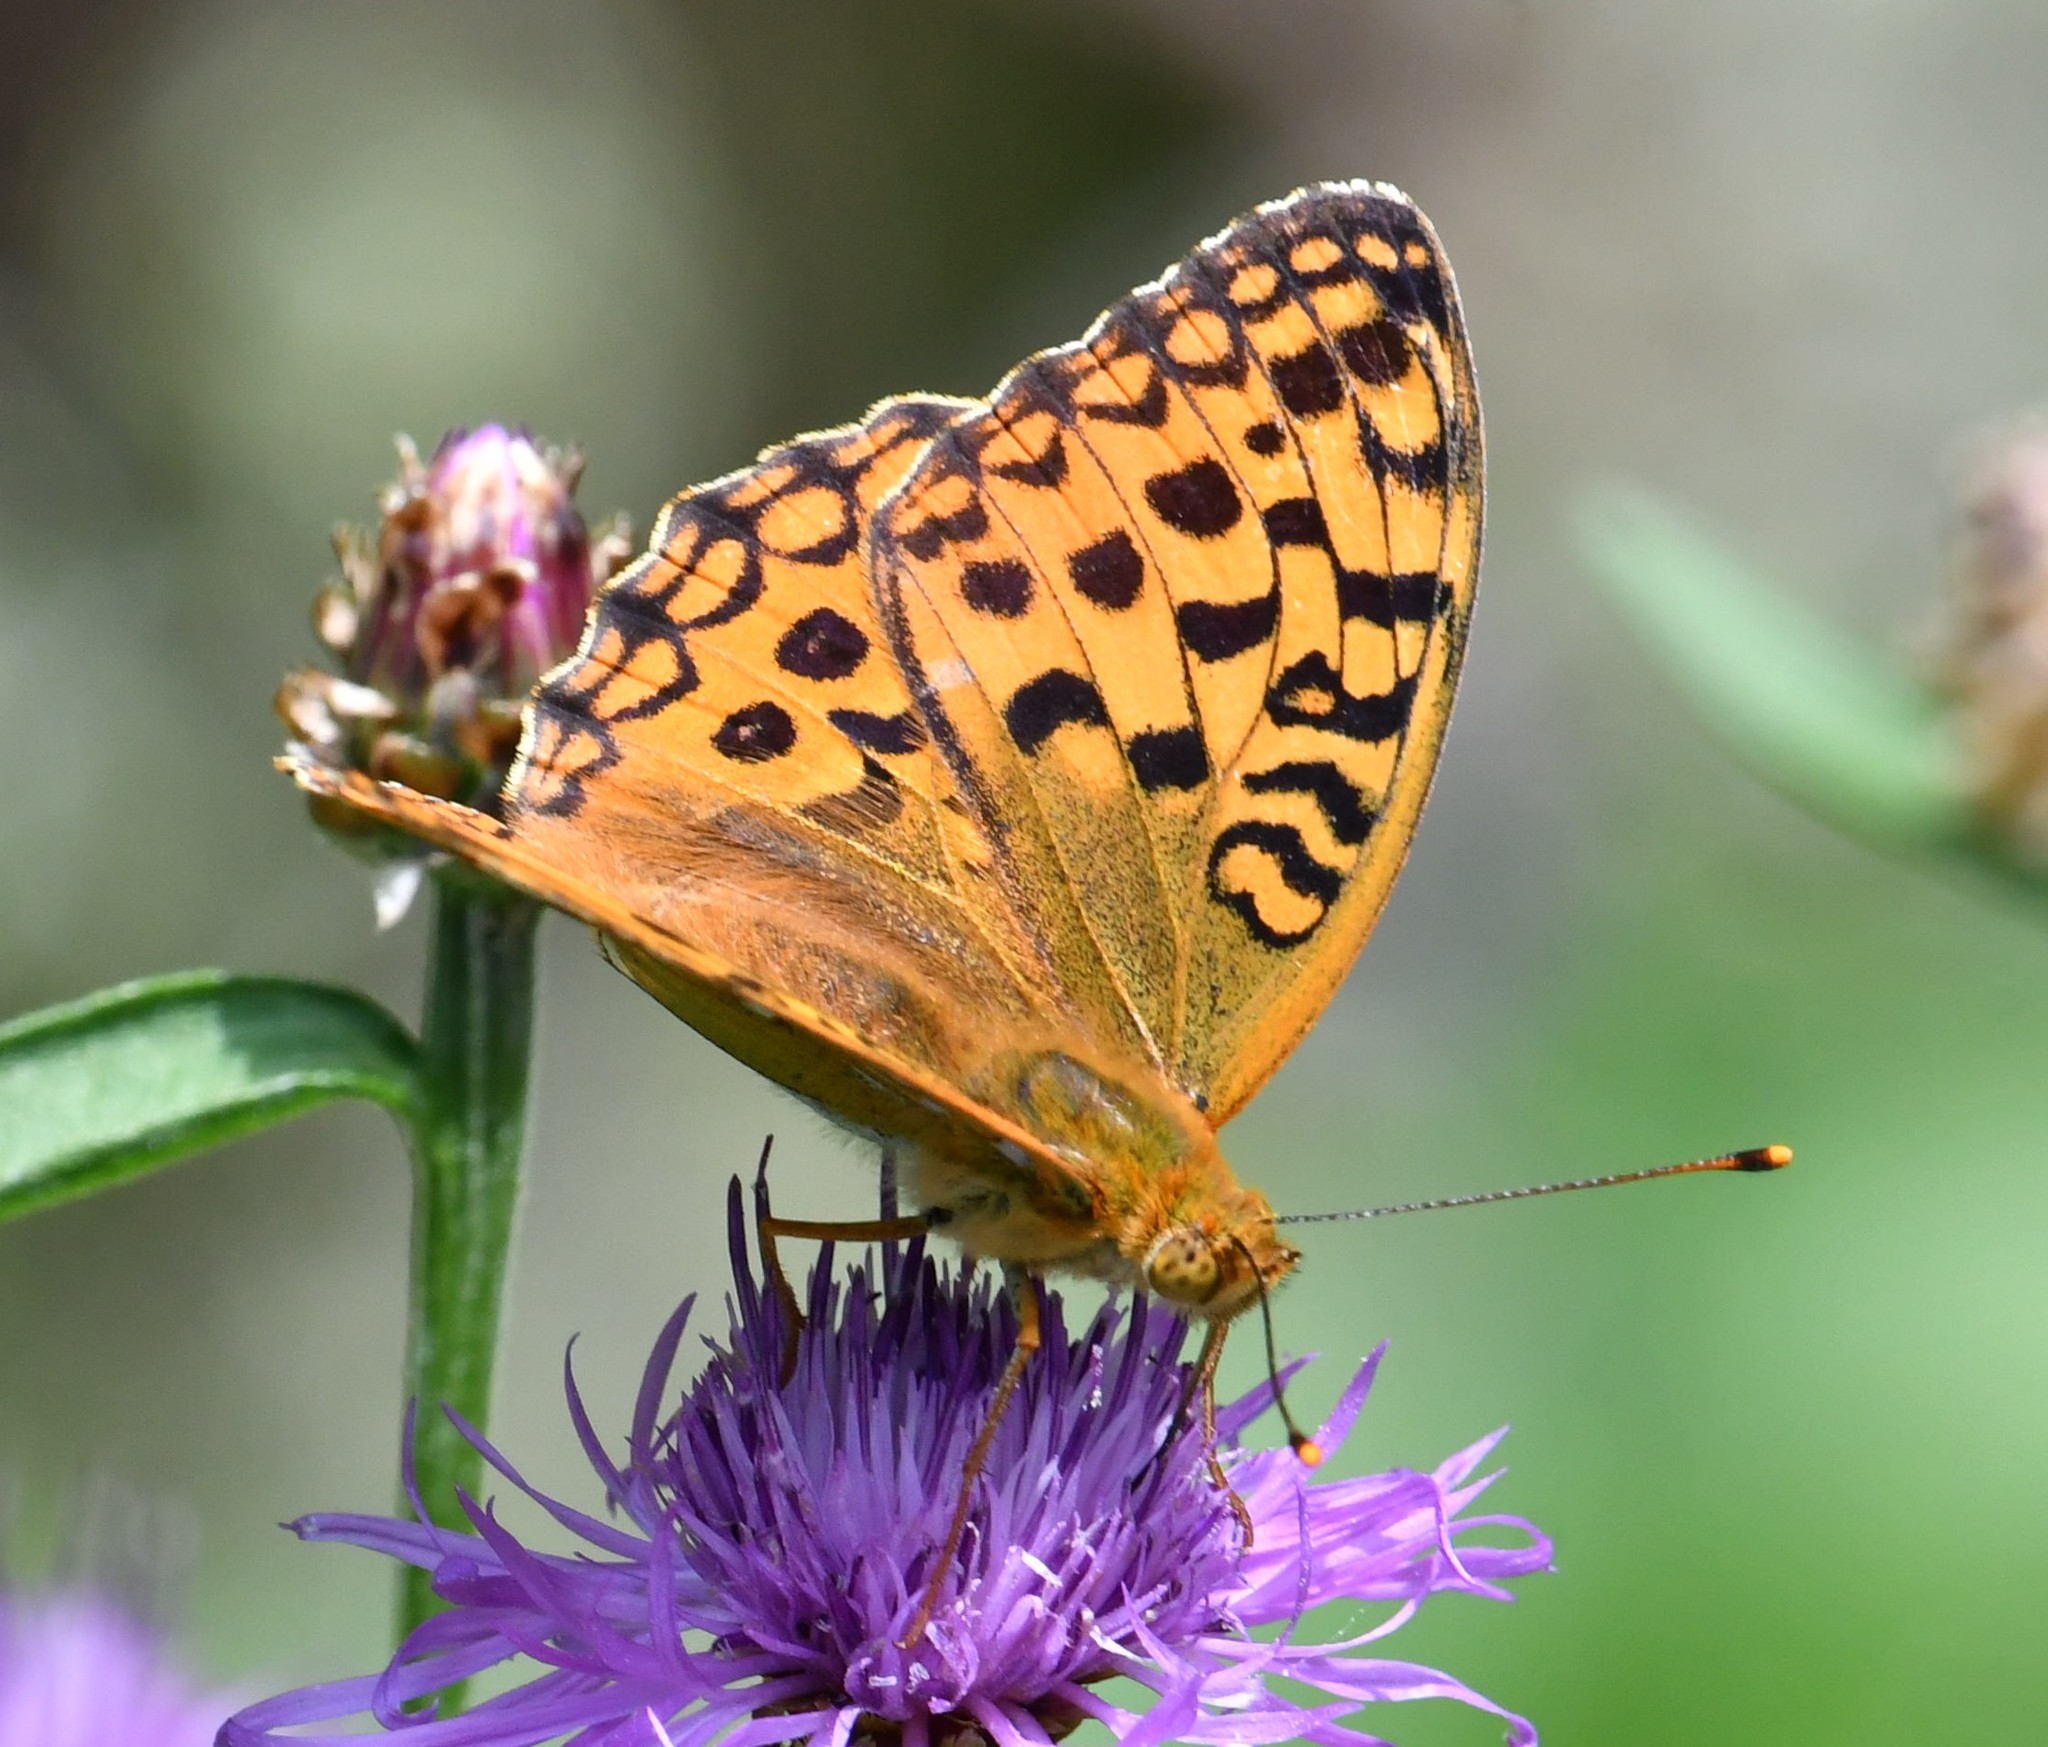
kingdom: Animalia
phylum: Arthropoda
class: Insecta
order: Lepidoptera
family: Nymphalidae
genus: Fabriciana
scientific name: Fabriciana adippe
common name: High brown fritillary
